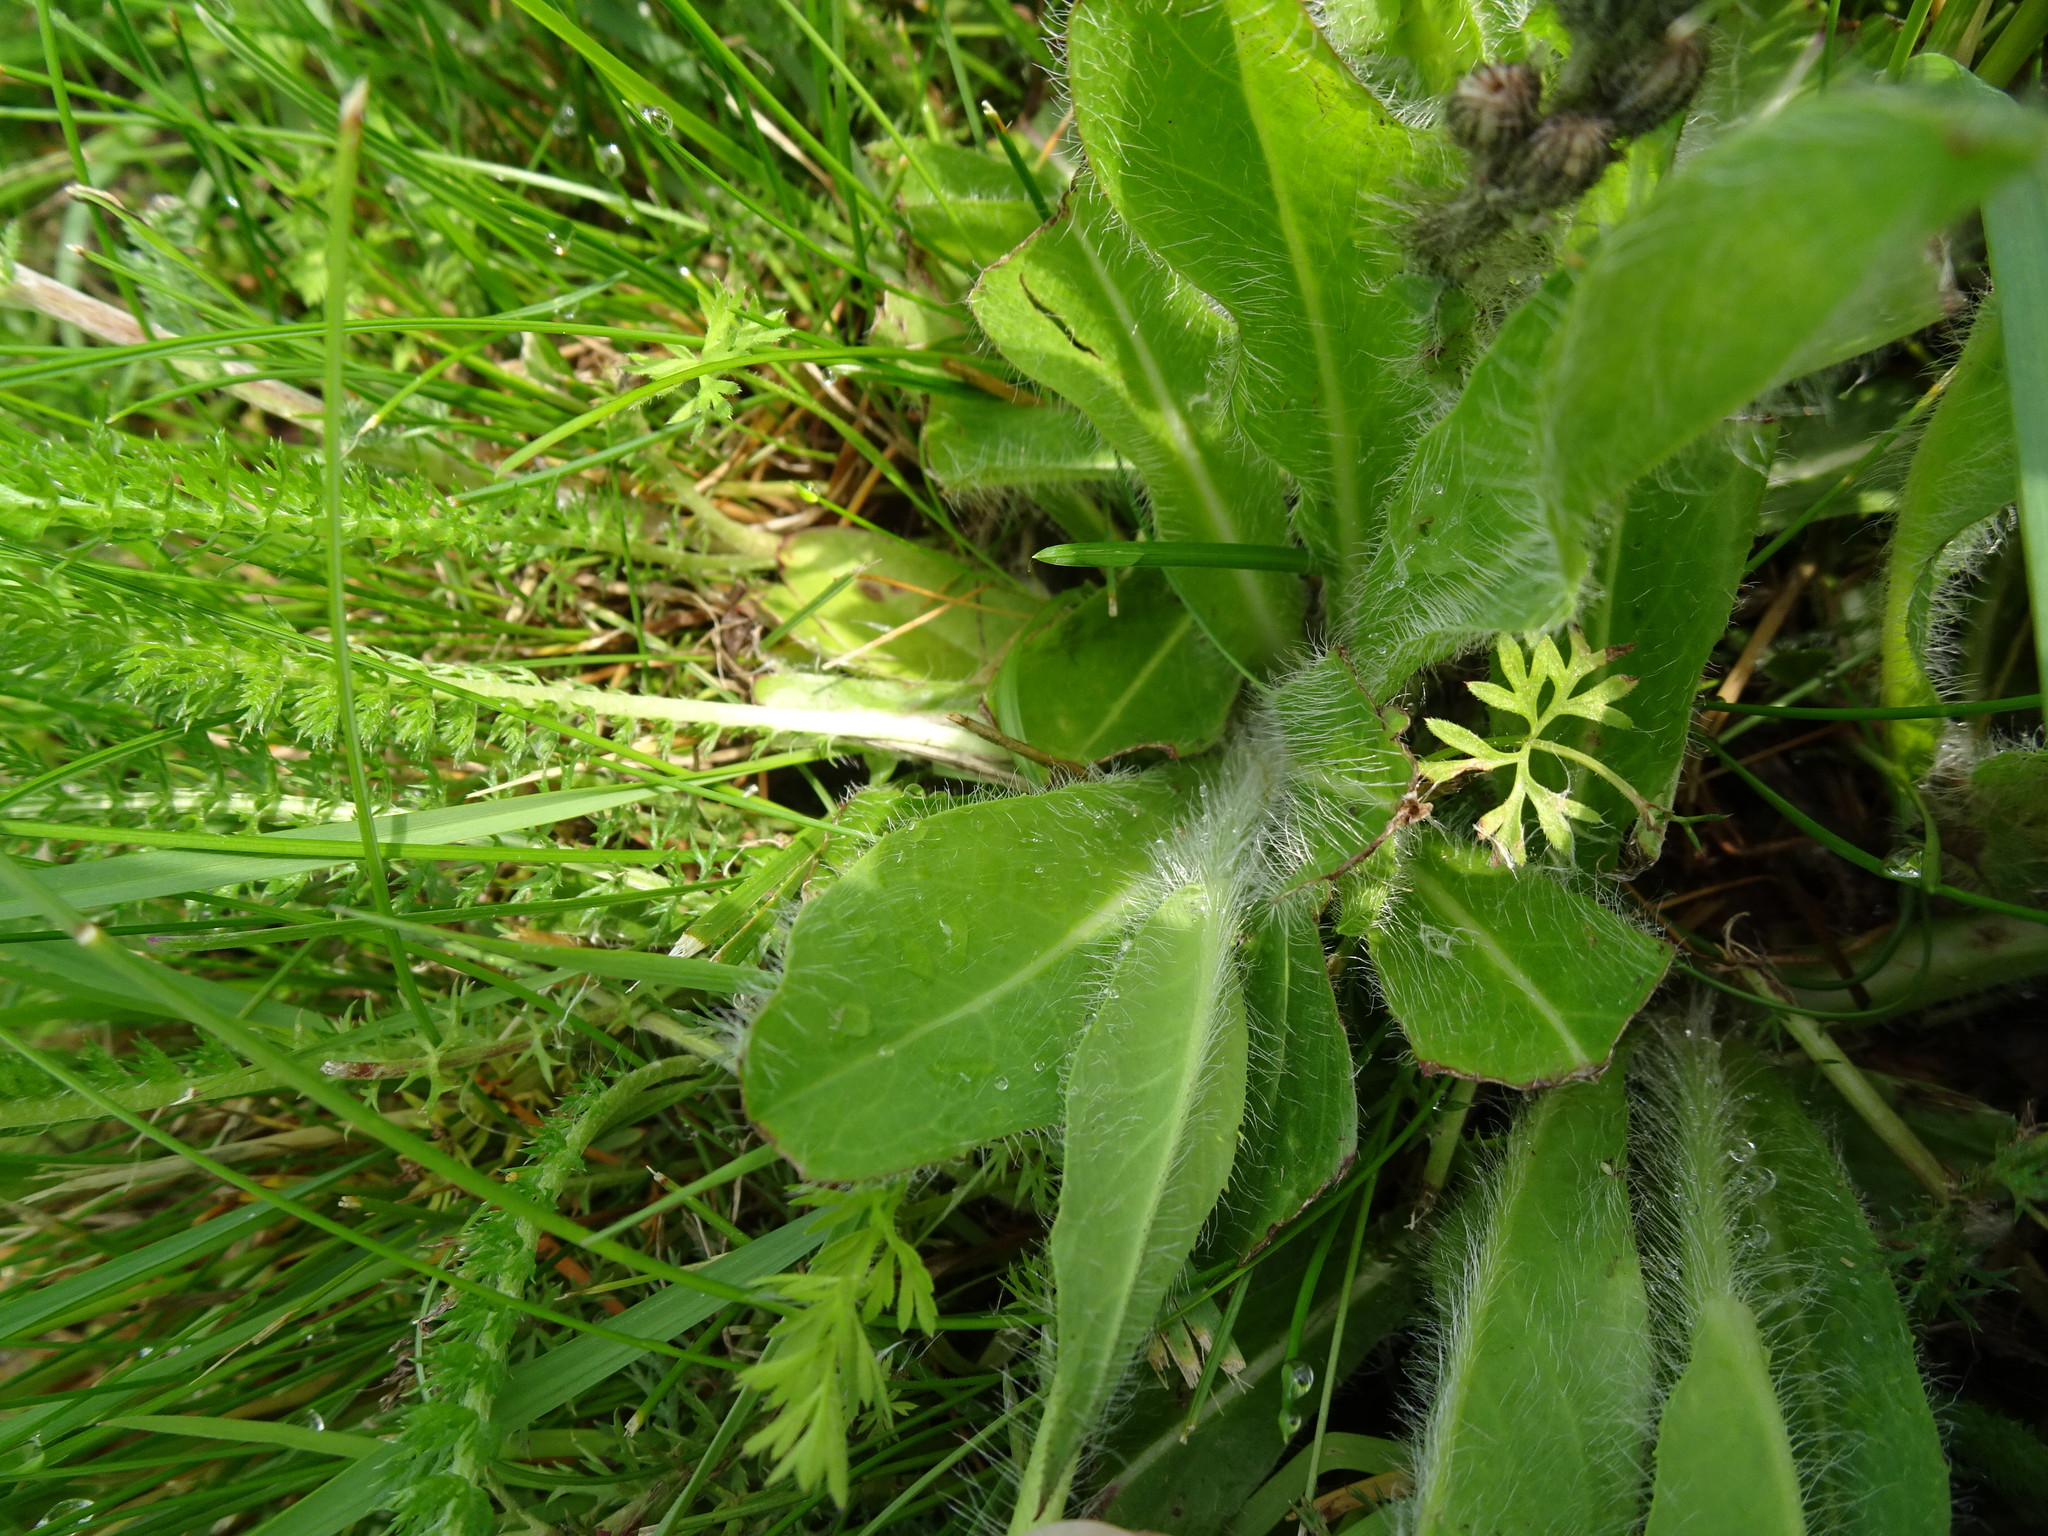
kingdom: Plantae
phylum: Tracheophyta
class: Magnoliopsida
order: Asterales
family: Asteraceae
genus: Pilosella
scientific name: Pilosella aurantiaca
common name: Fox-and-cubs
